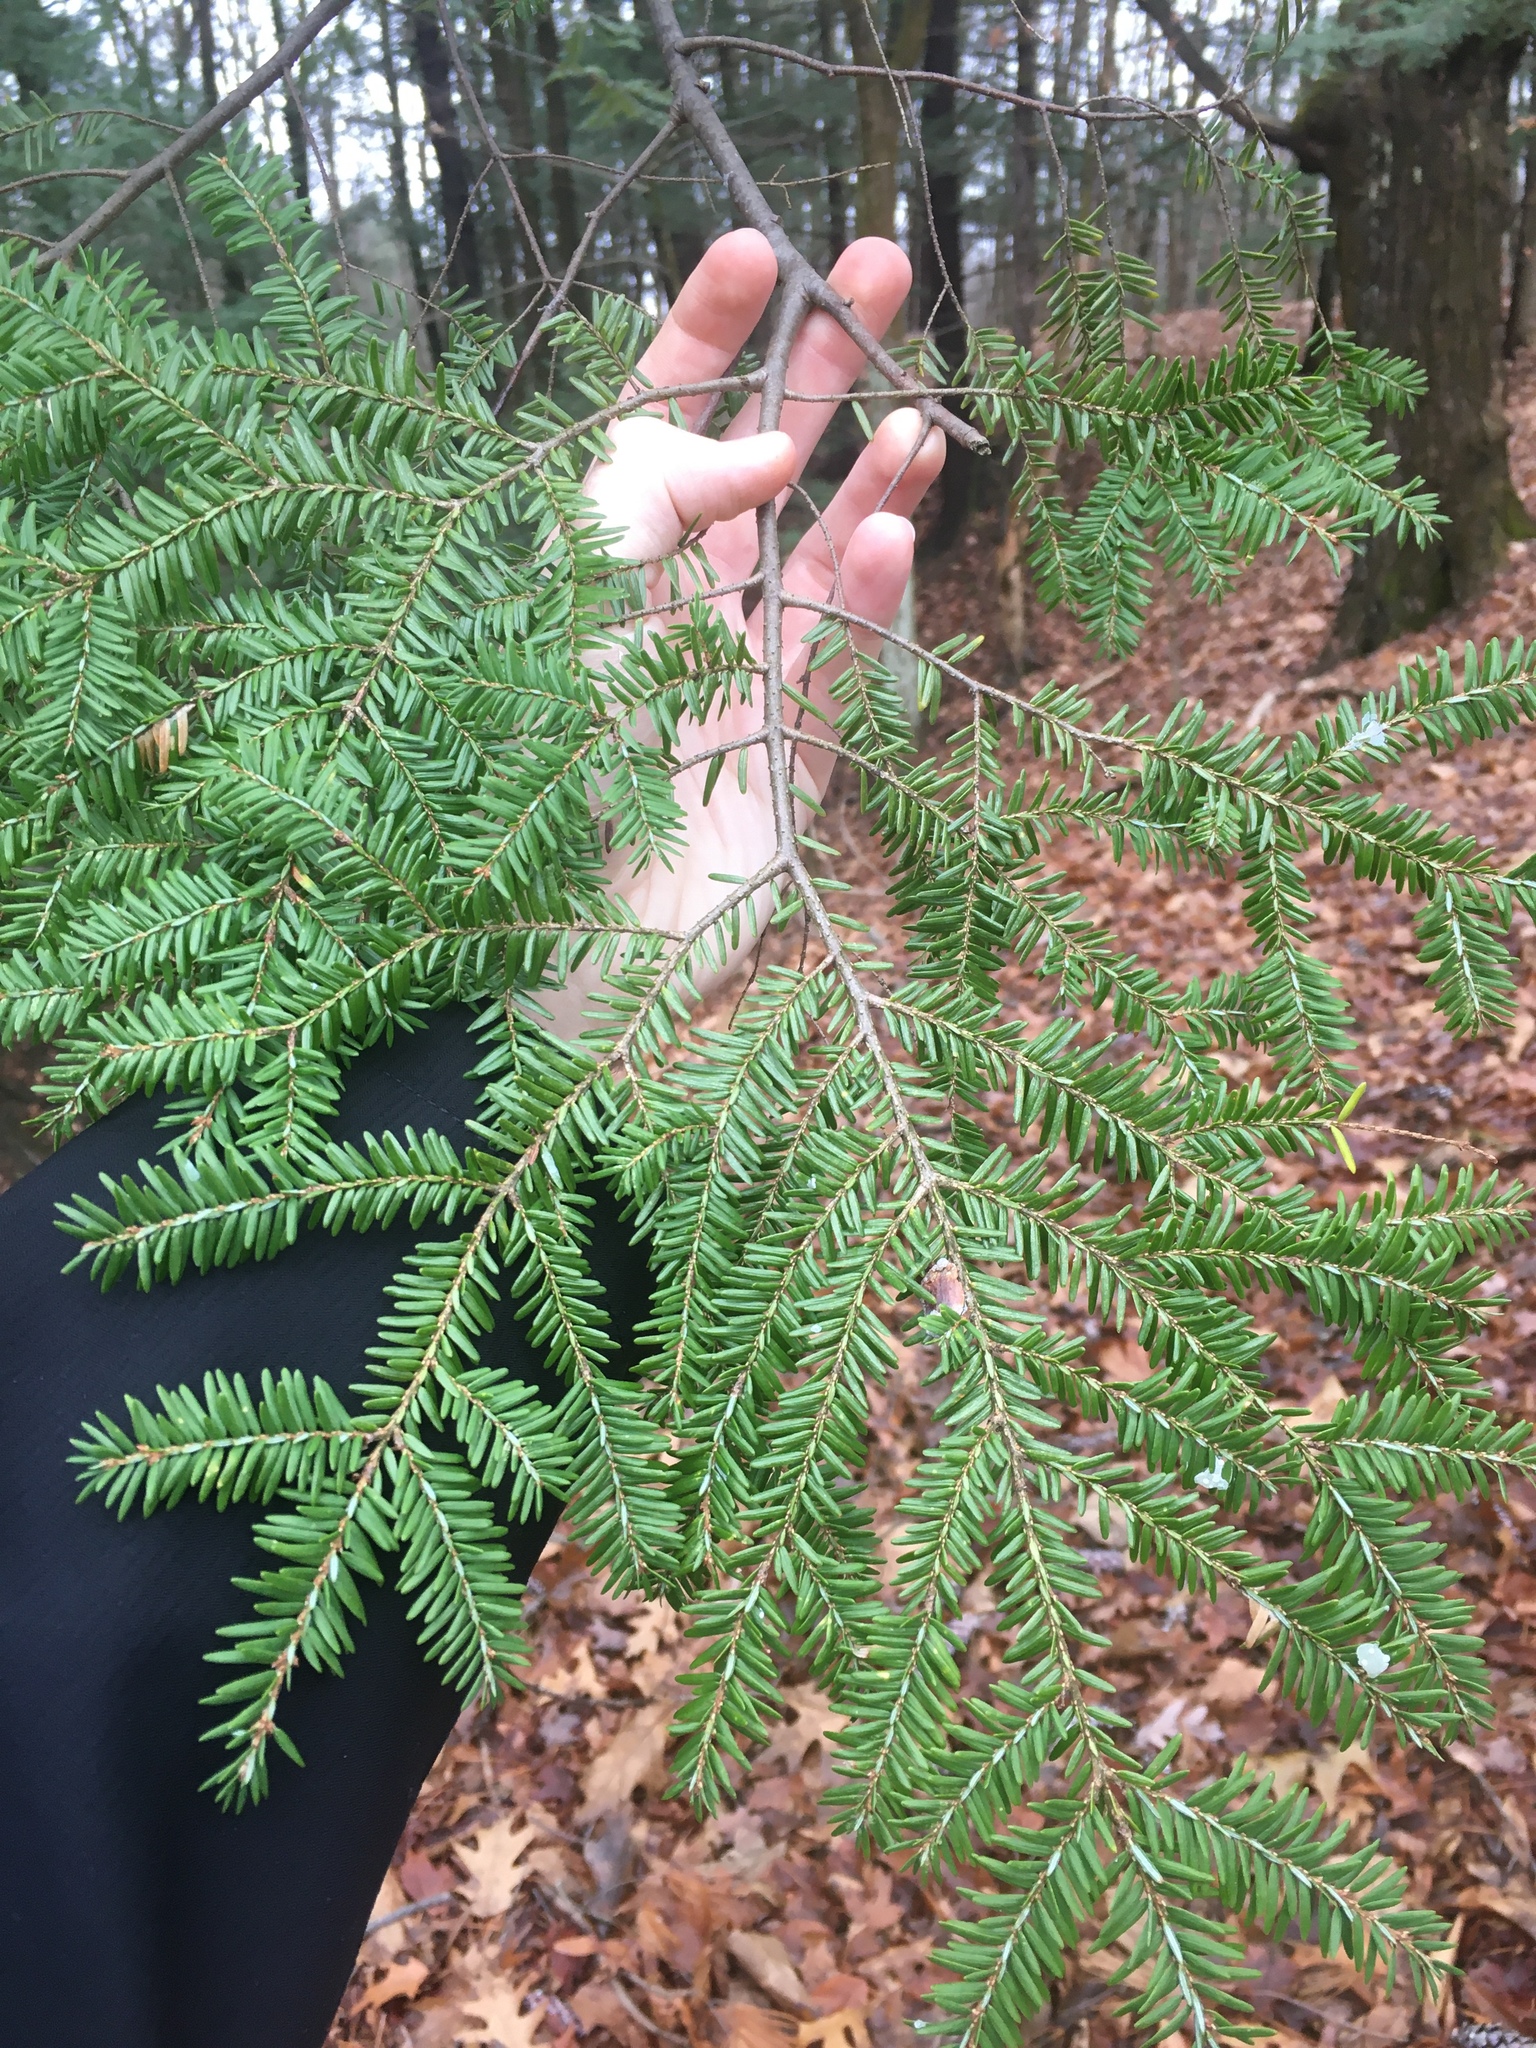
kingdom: Plantae
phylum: Tracheophyta
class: Pinopsida
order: Pinales
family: Pinaceae
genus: Tsuga
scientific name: Tsuga canadensis
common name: Eastern hemlock
